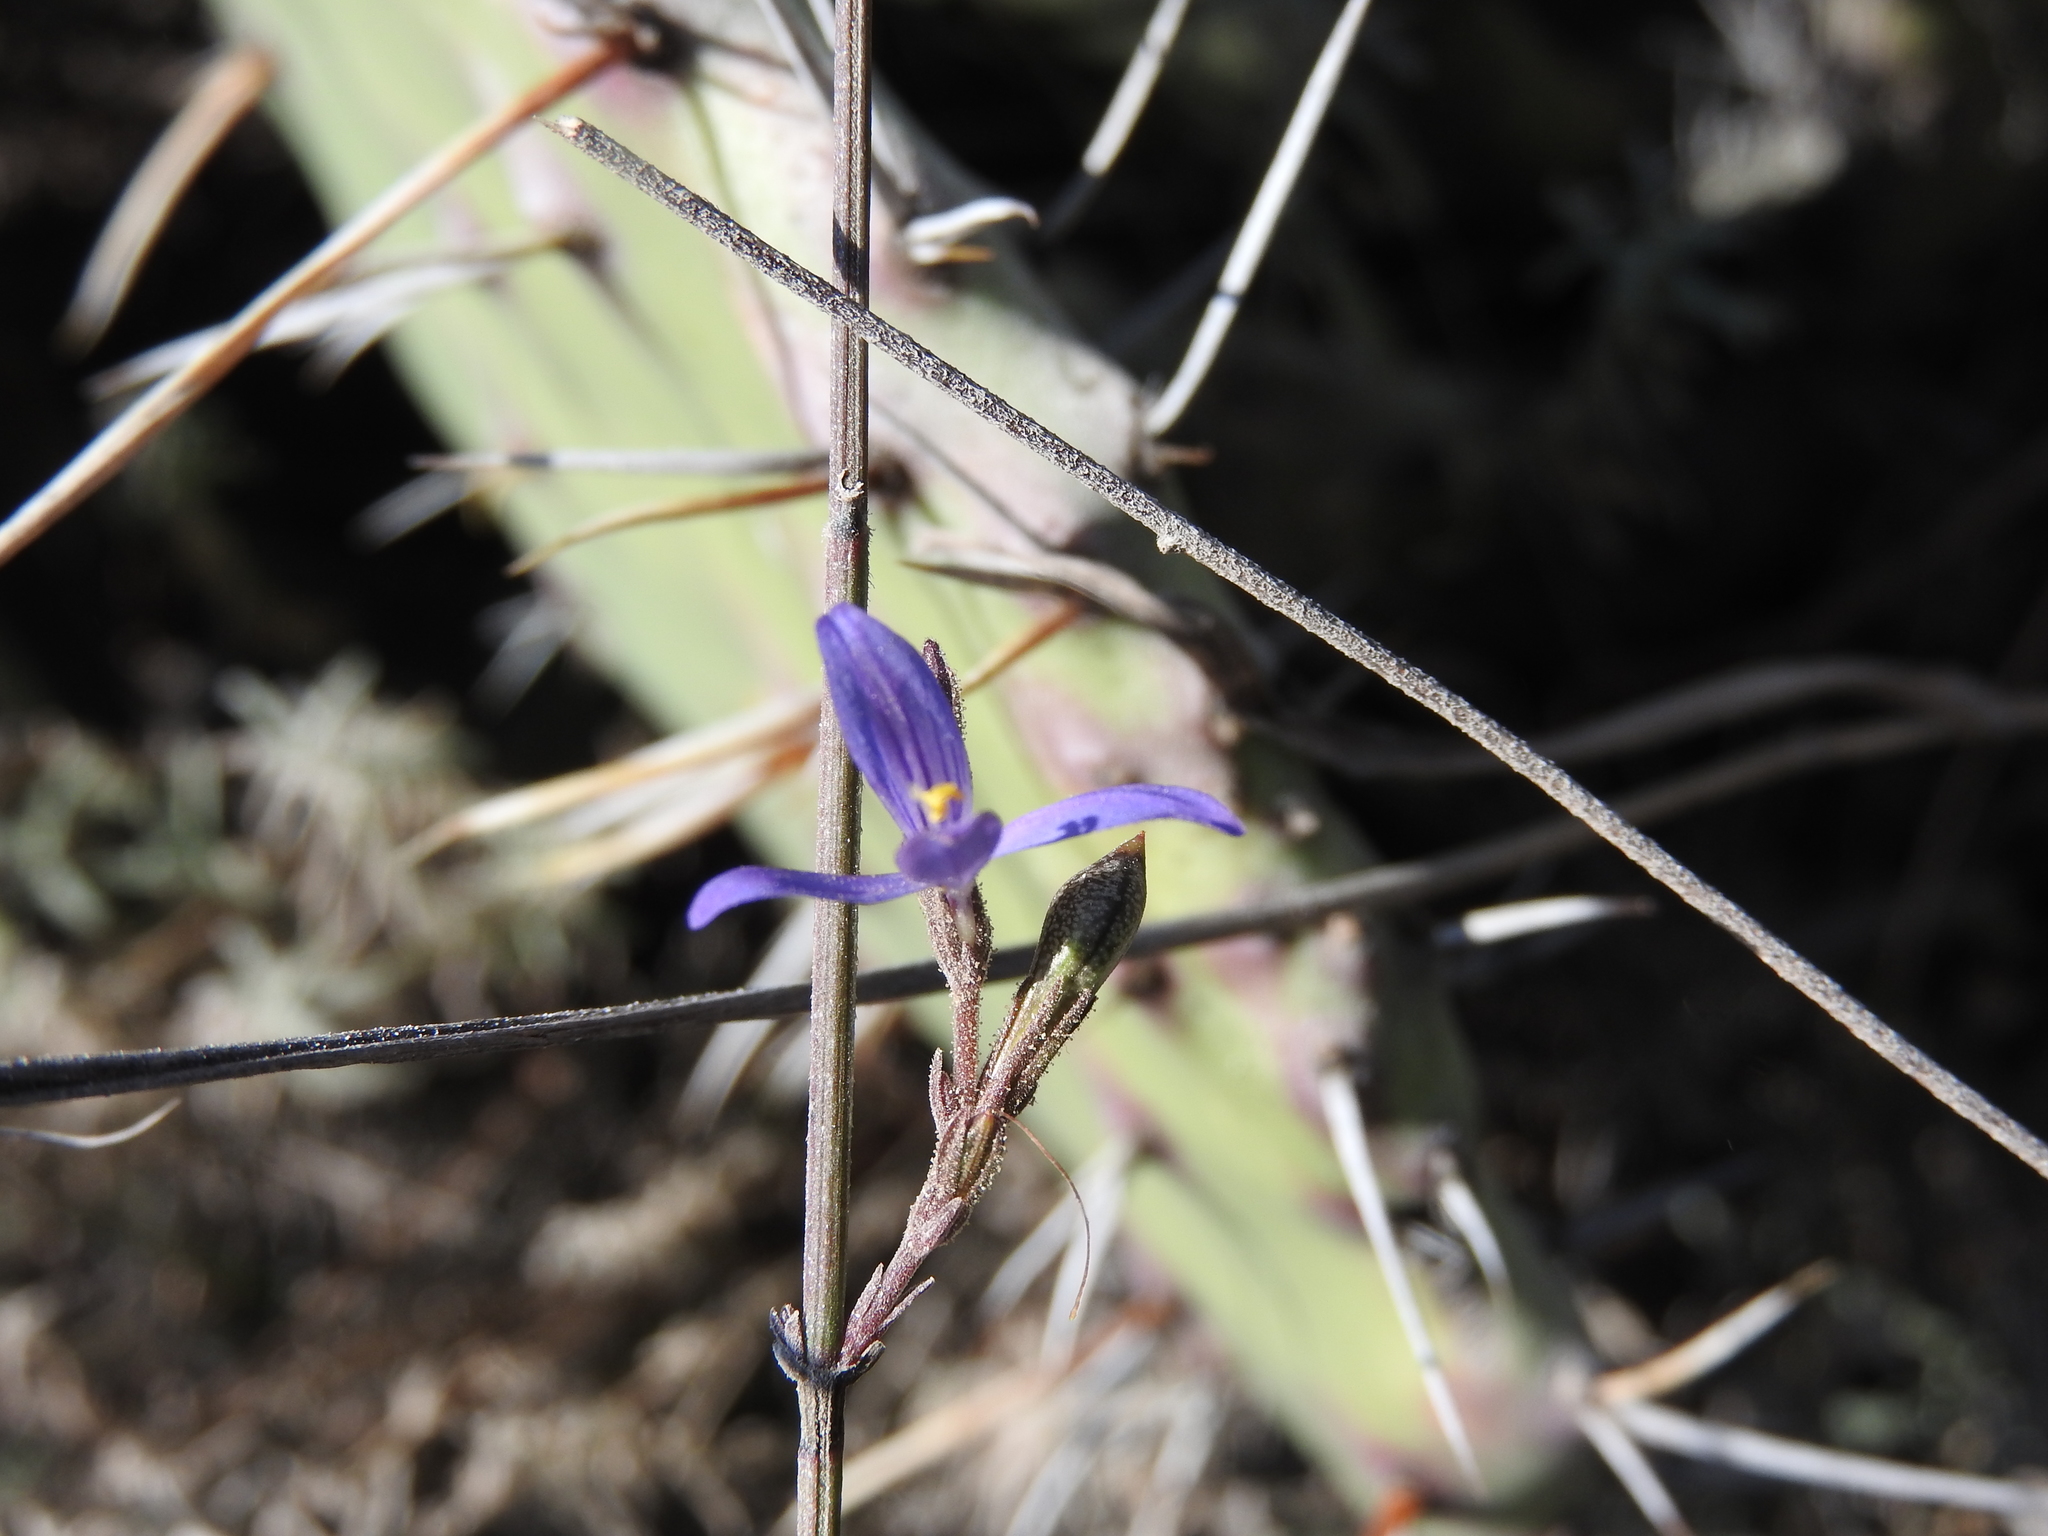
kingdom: Plantae
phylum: Tracheophyta
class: Magnoliopsida
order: Lamiales
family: Acanthaceae
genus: Carlowrightia
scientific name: Carlowrightia parviflora
